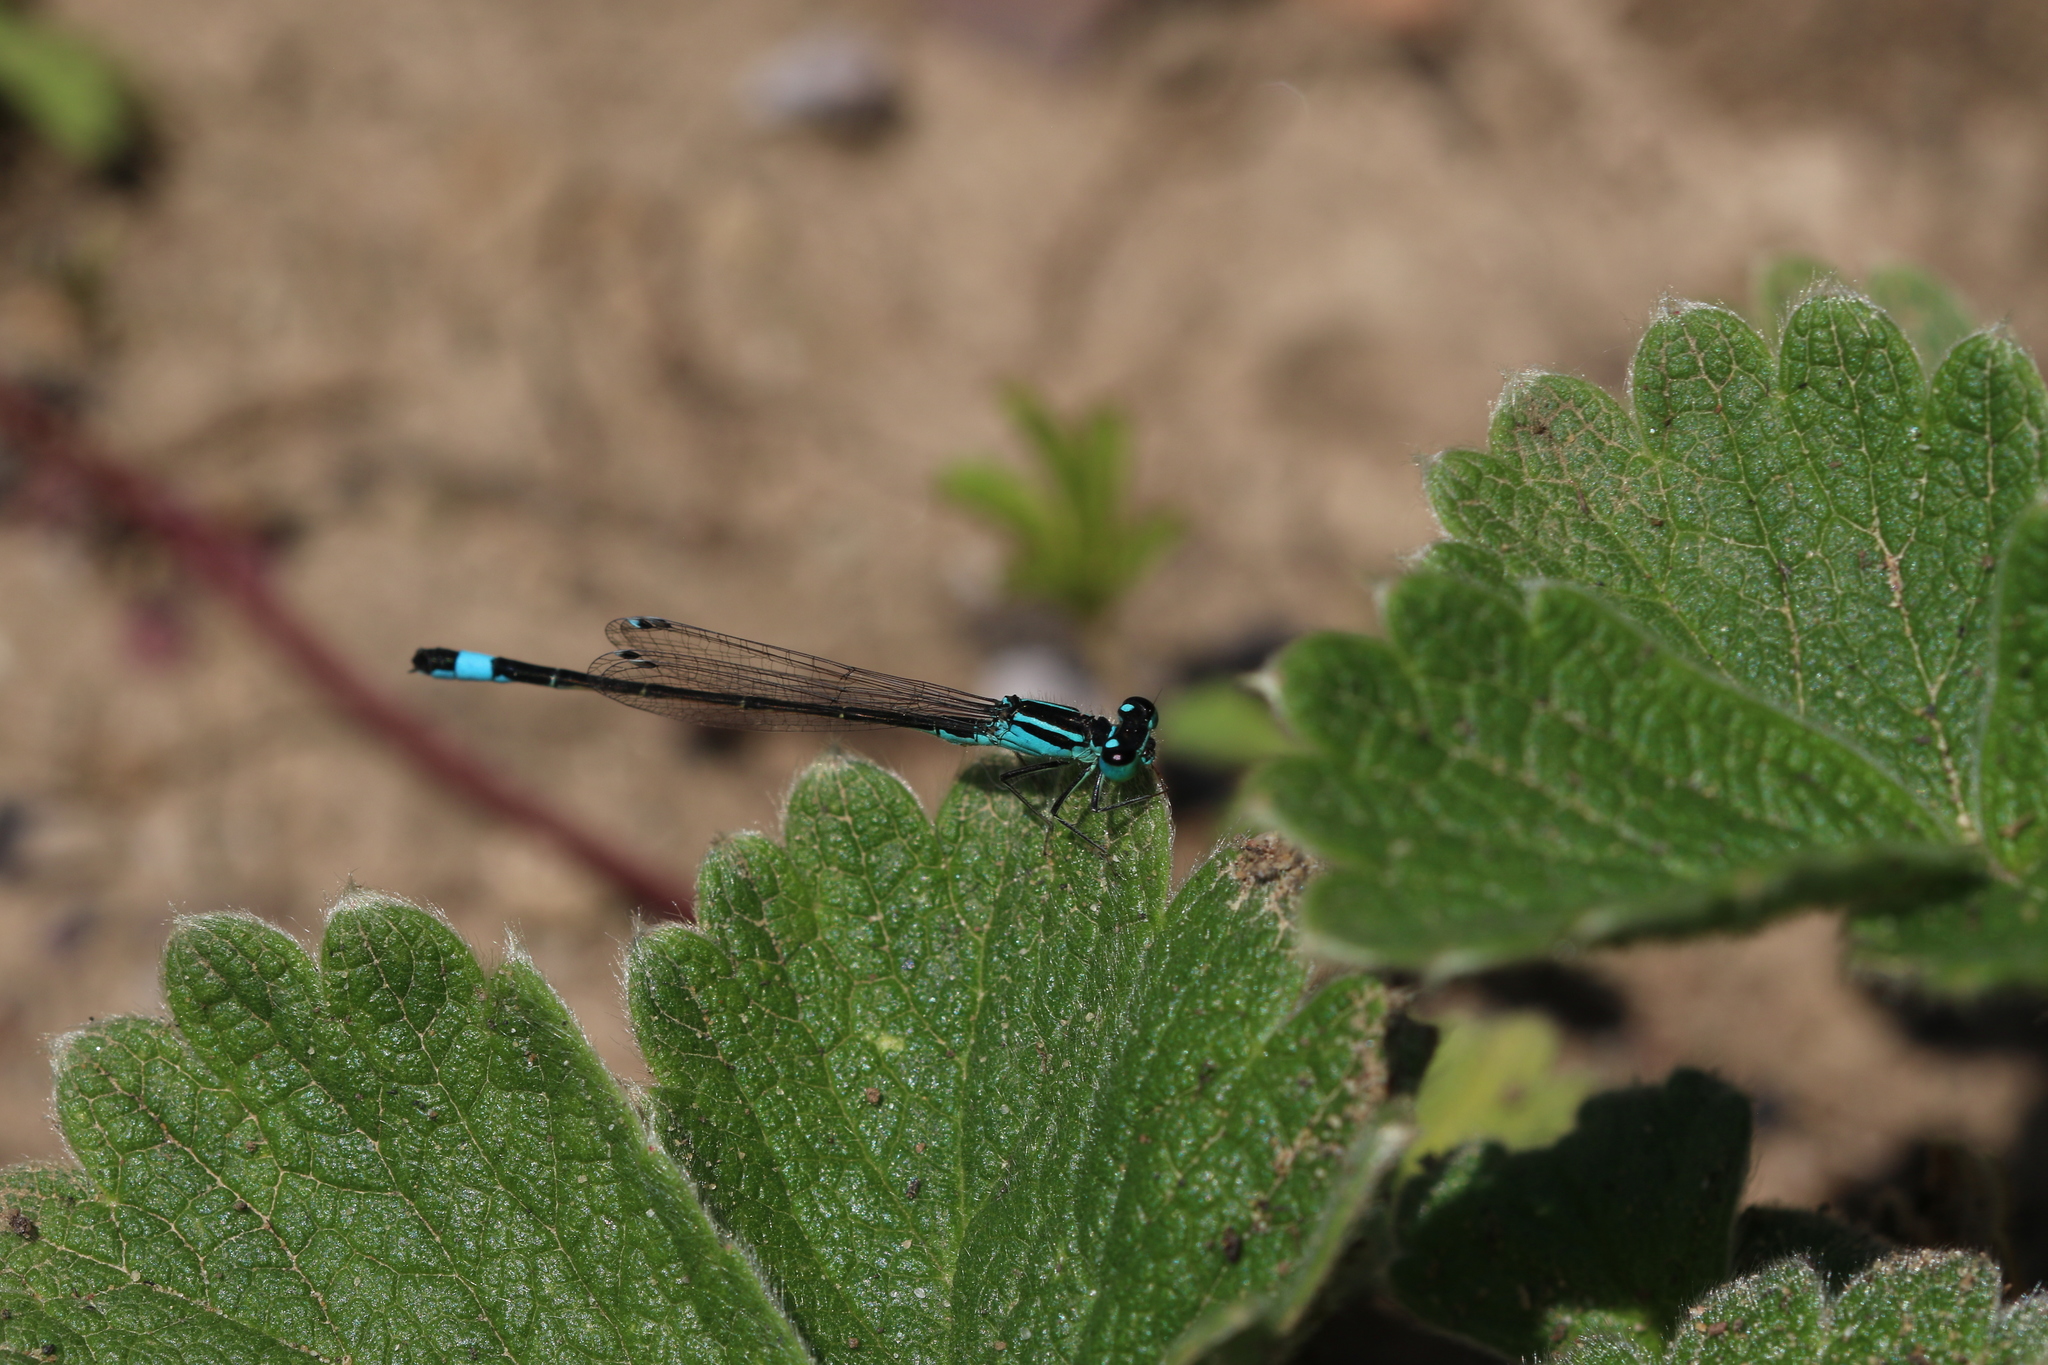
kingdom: Animalia
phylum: Arthropoda
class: Insecta
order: Odonata
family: Coenagrionidae
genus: Ischnura
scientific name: Ischnura elegans
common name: Blue-tailed damselfly
